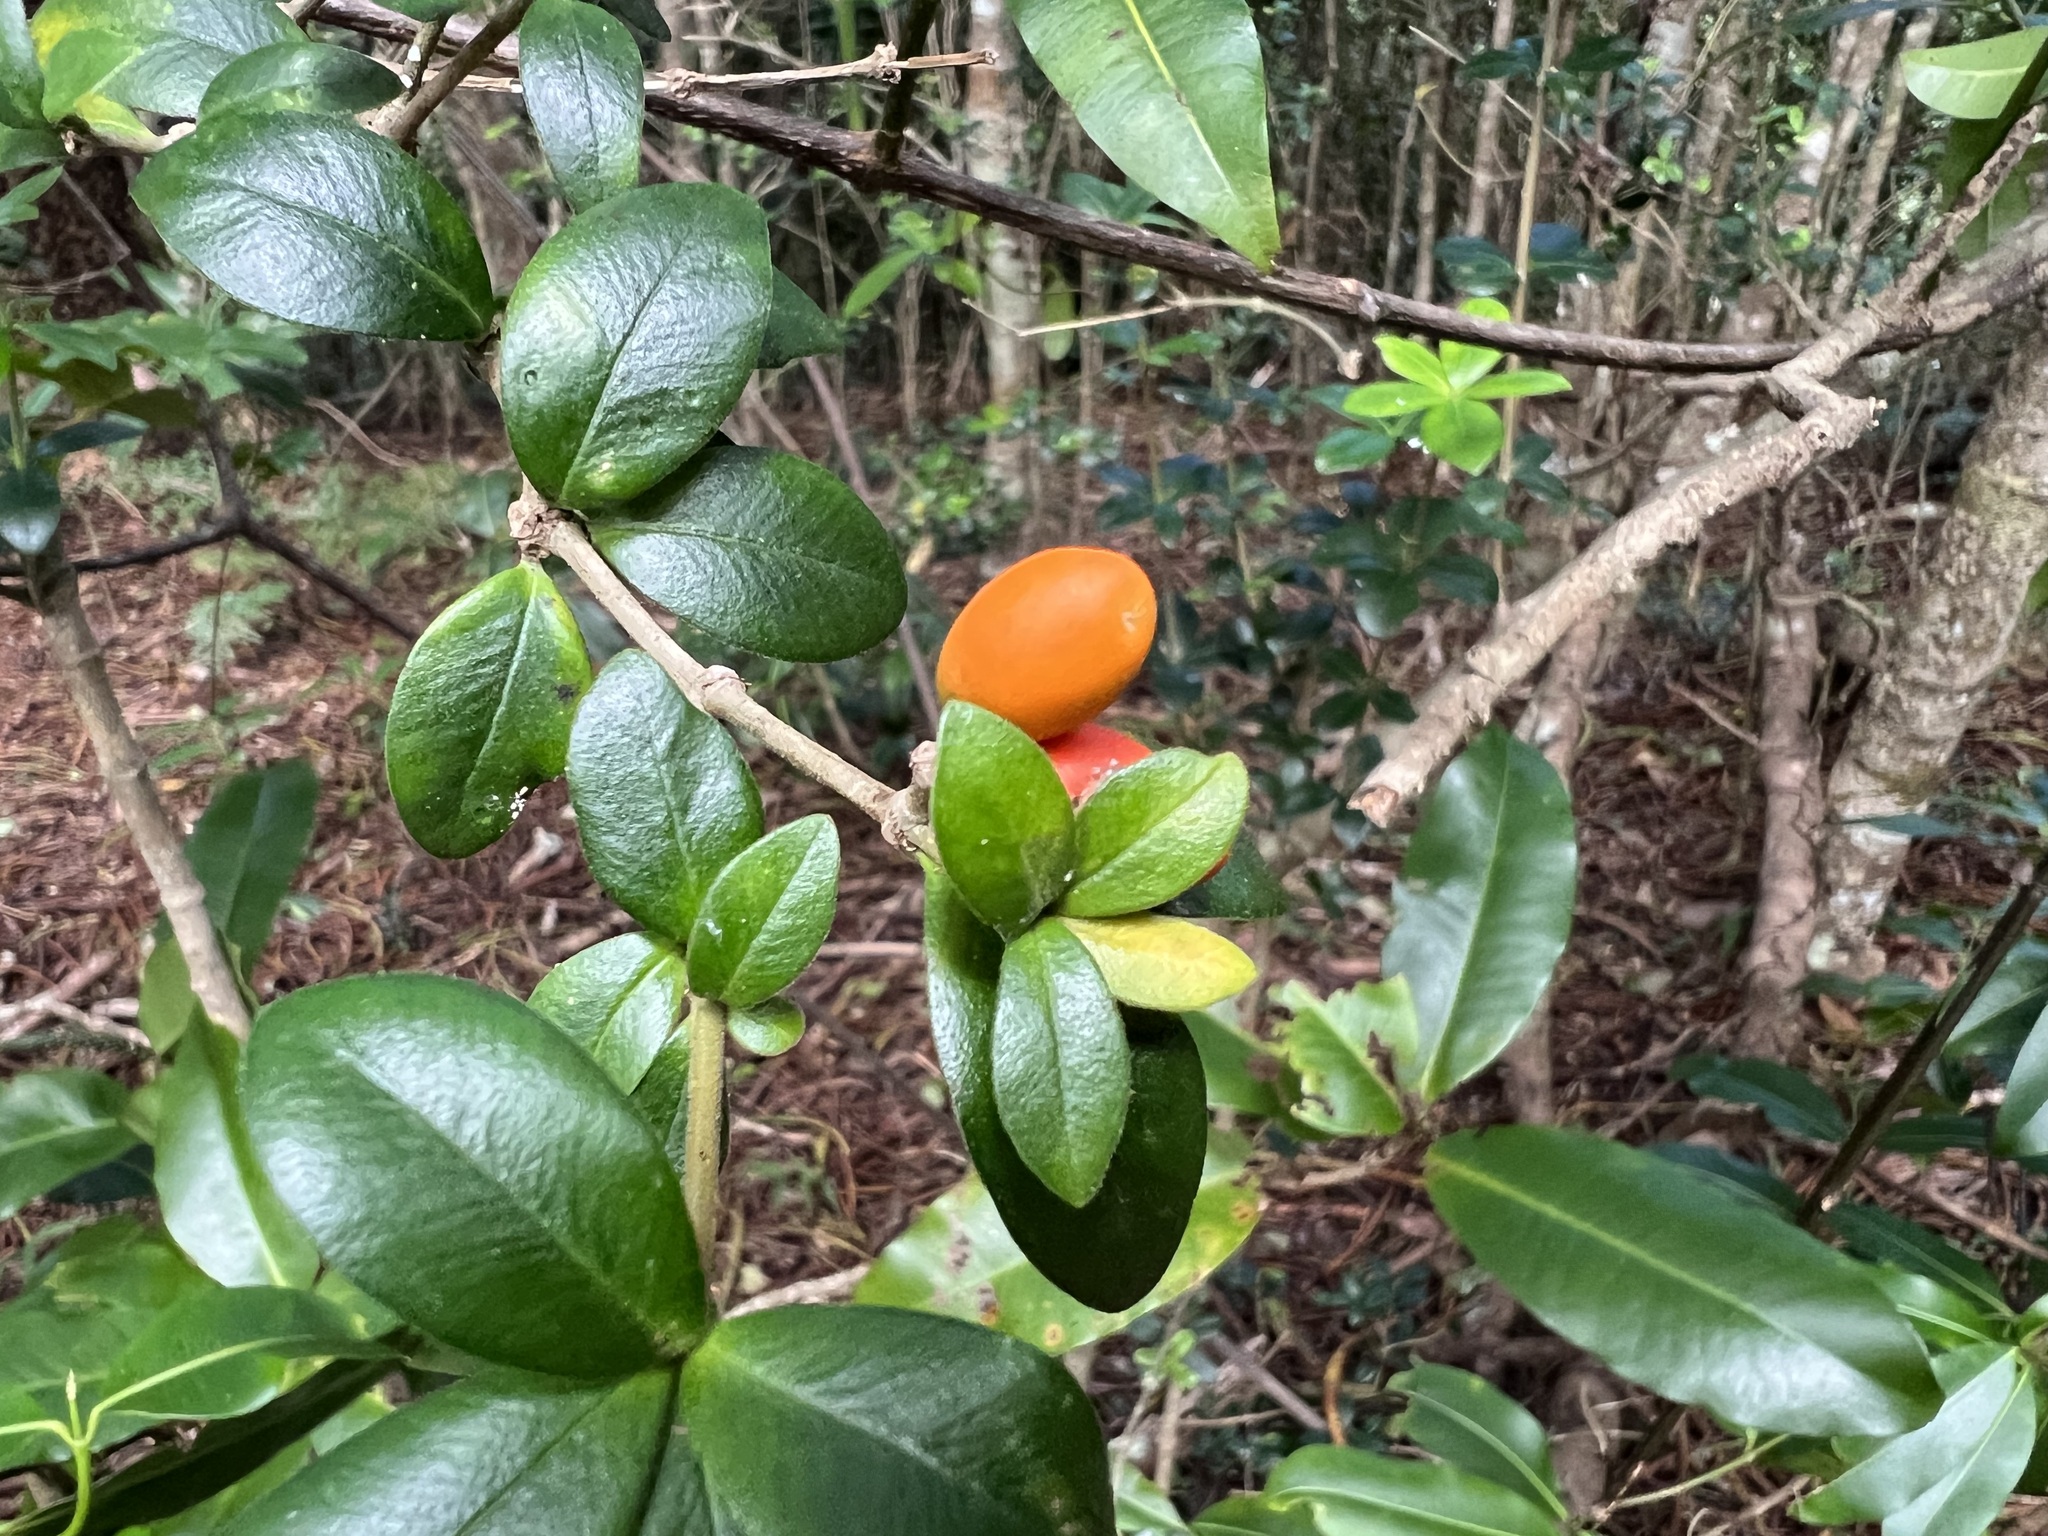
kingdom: Plantae
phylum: Tracheophyta
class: Magnoliopsida
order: Gentianales
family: Apocynaceae
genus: Alyxia
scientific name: Alyxia gynopogon
